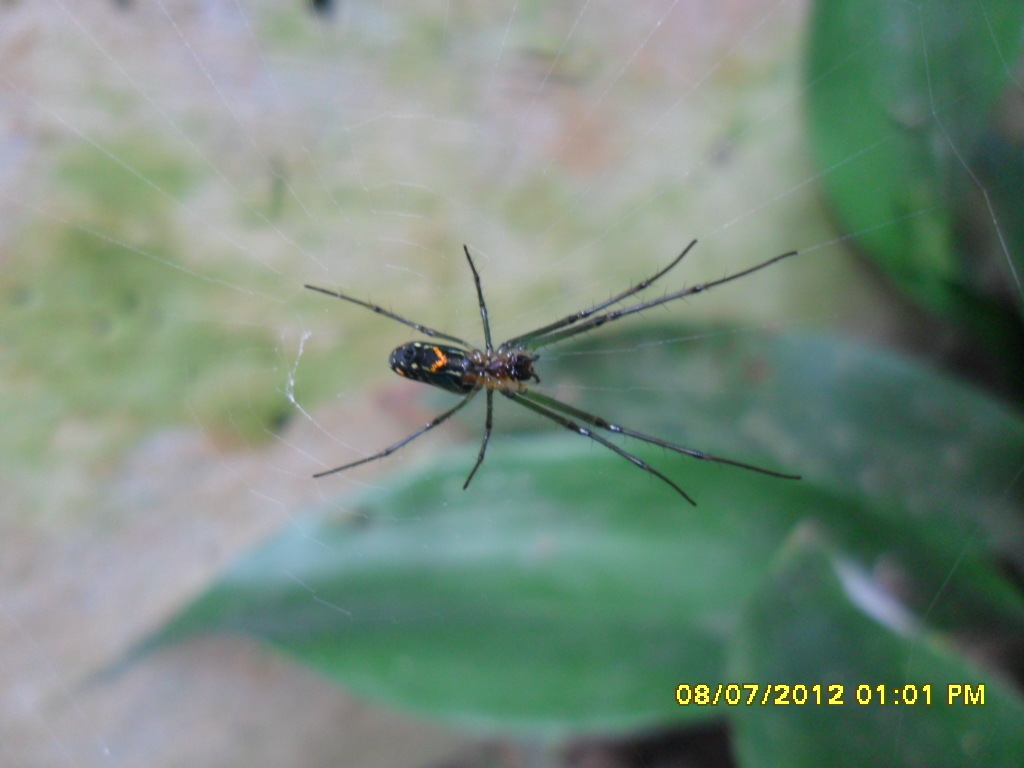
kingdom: Animalia
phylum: Arthropoda
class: Arachnida
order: Araneae
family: Tetragnathidae
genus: Leucauge
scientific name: Leucauge argyrobapta
